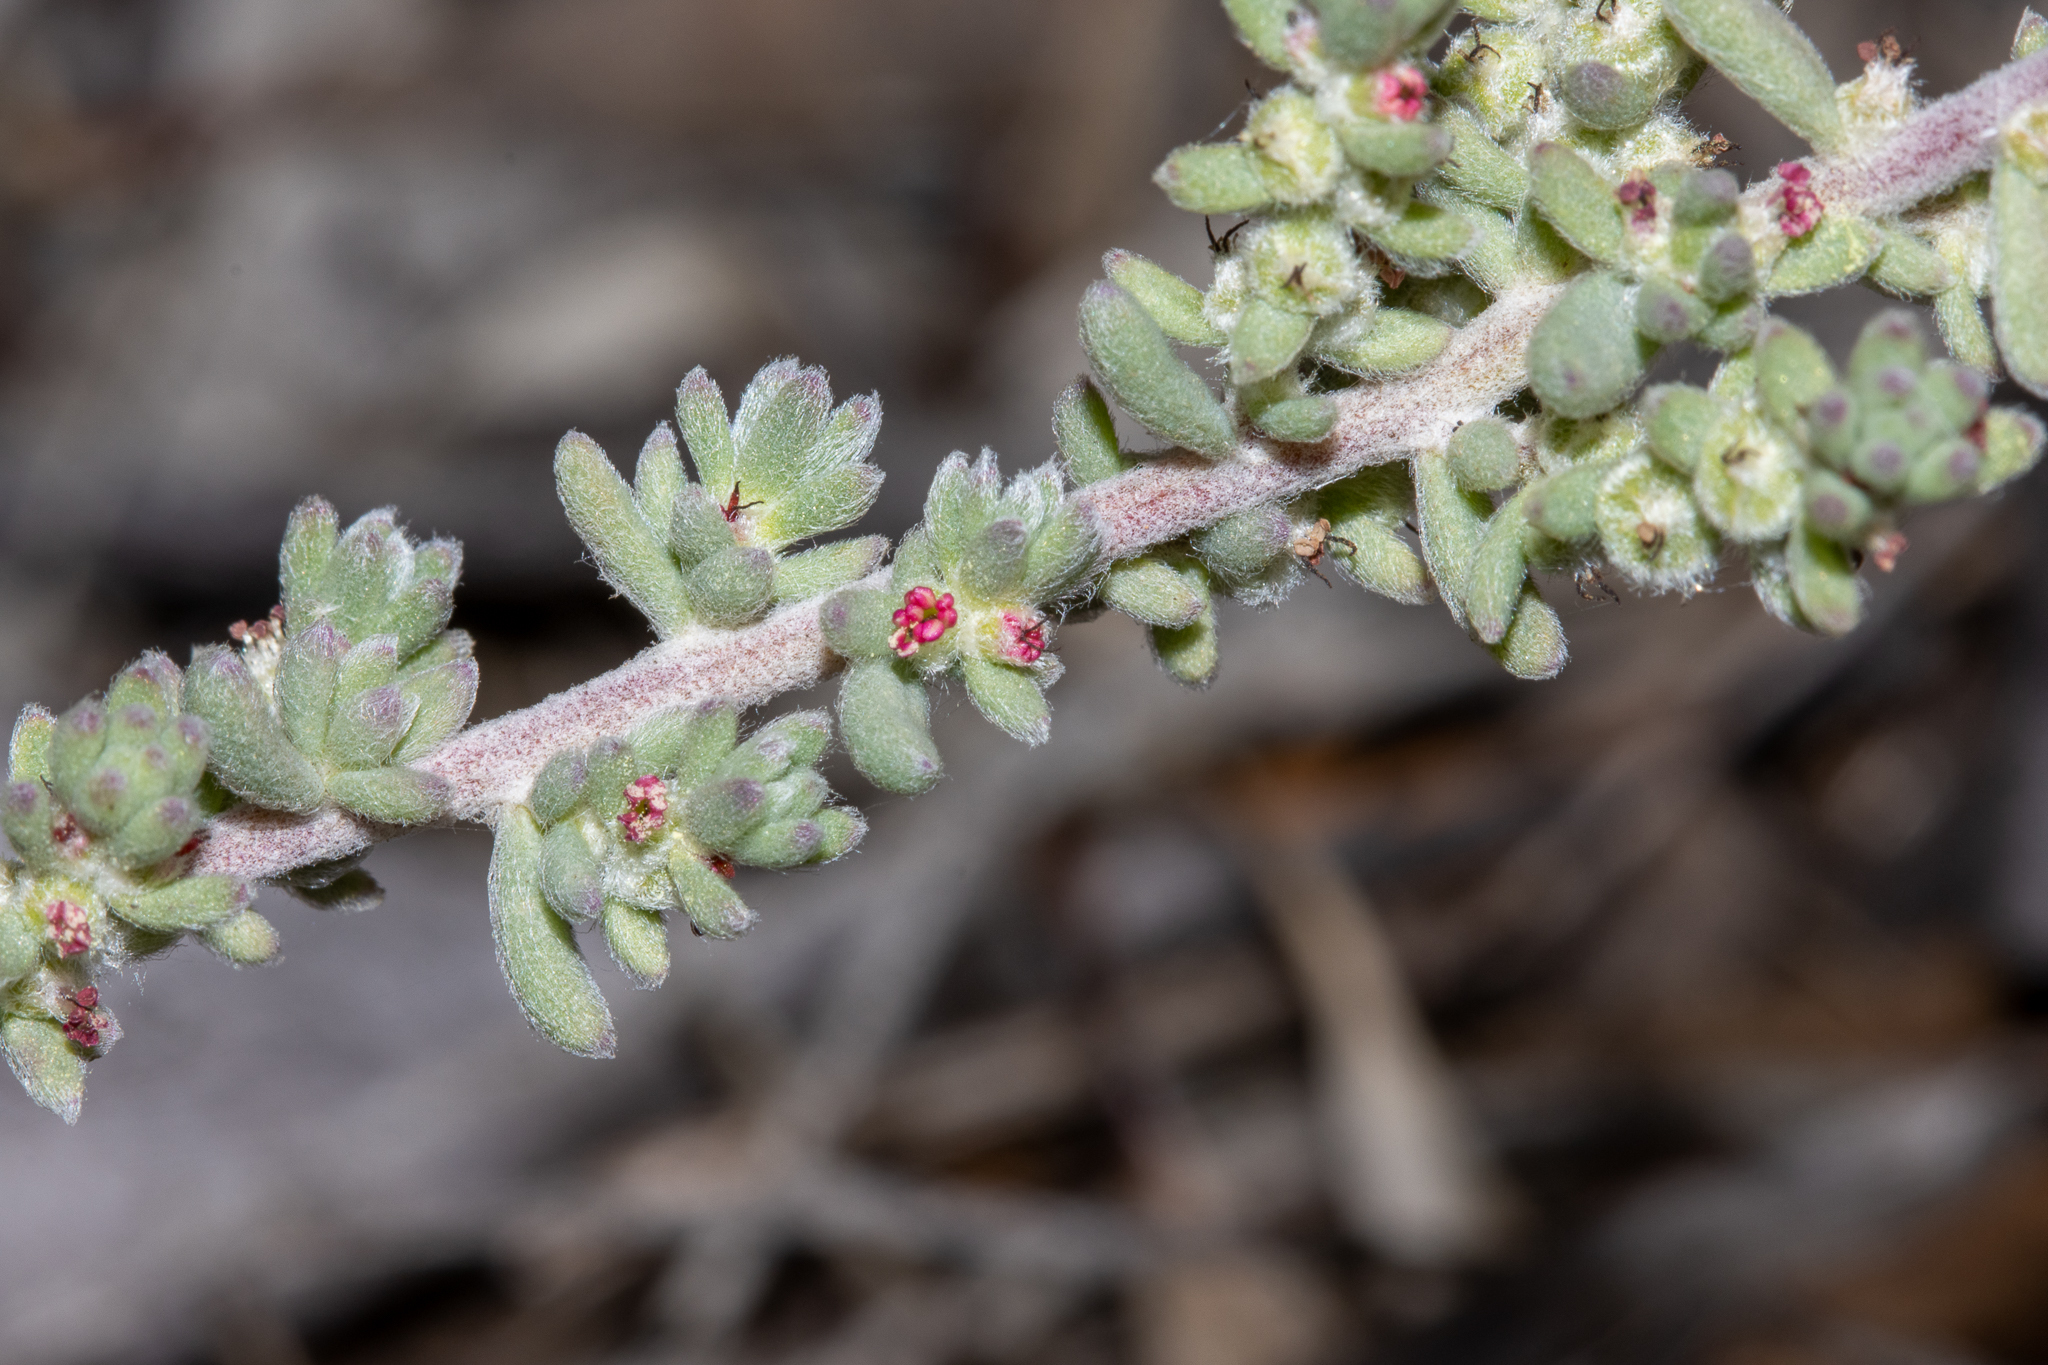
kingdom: Plantae
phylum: Tracheophyta
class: Magnoliopsida
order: Caryophyllales
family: Amaranthaceae
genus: Maireana
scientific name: Maireana trichoptera
